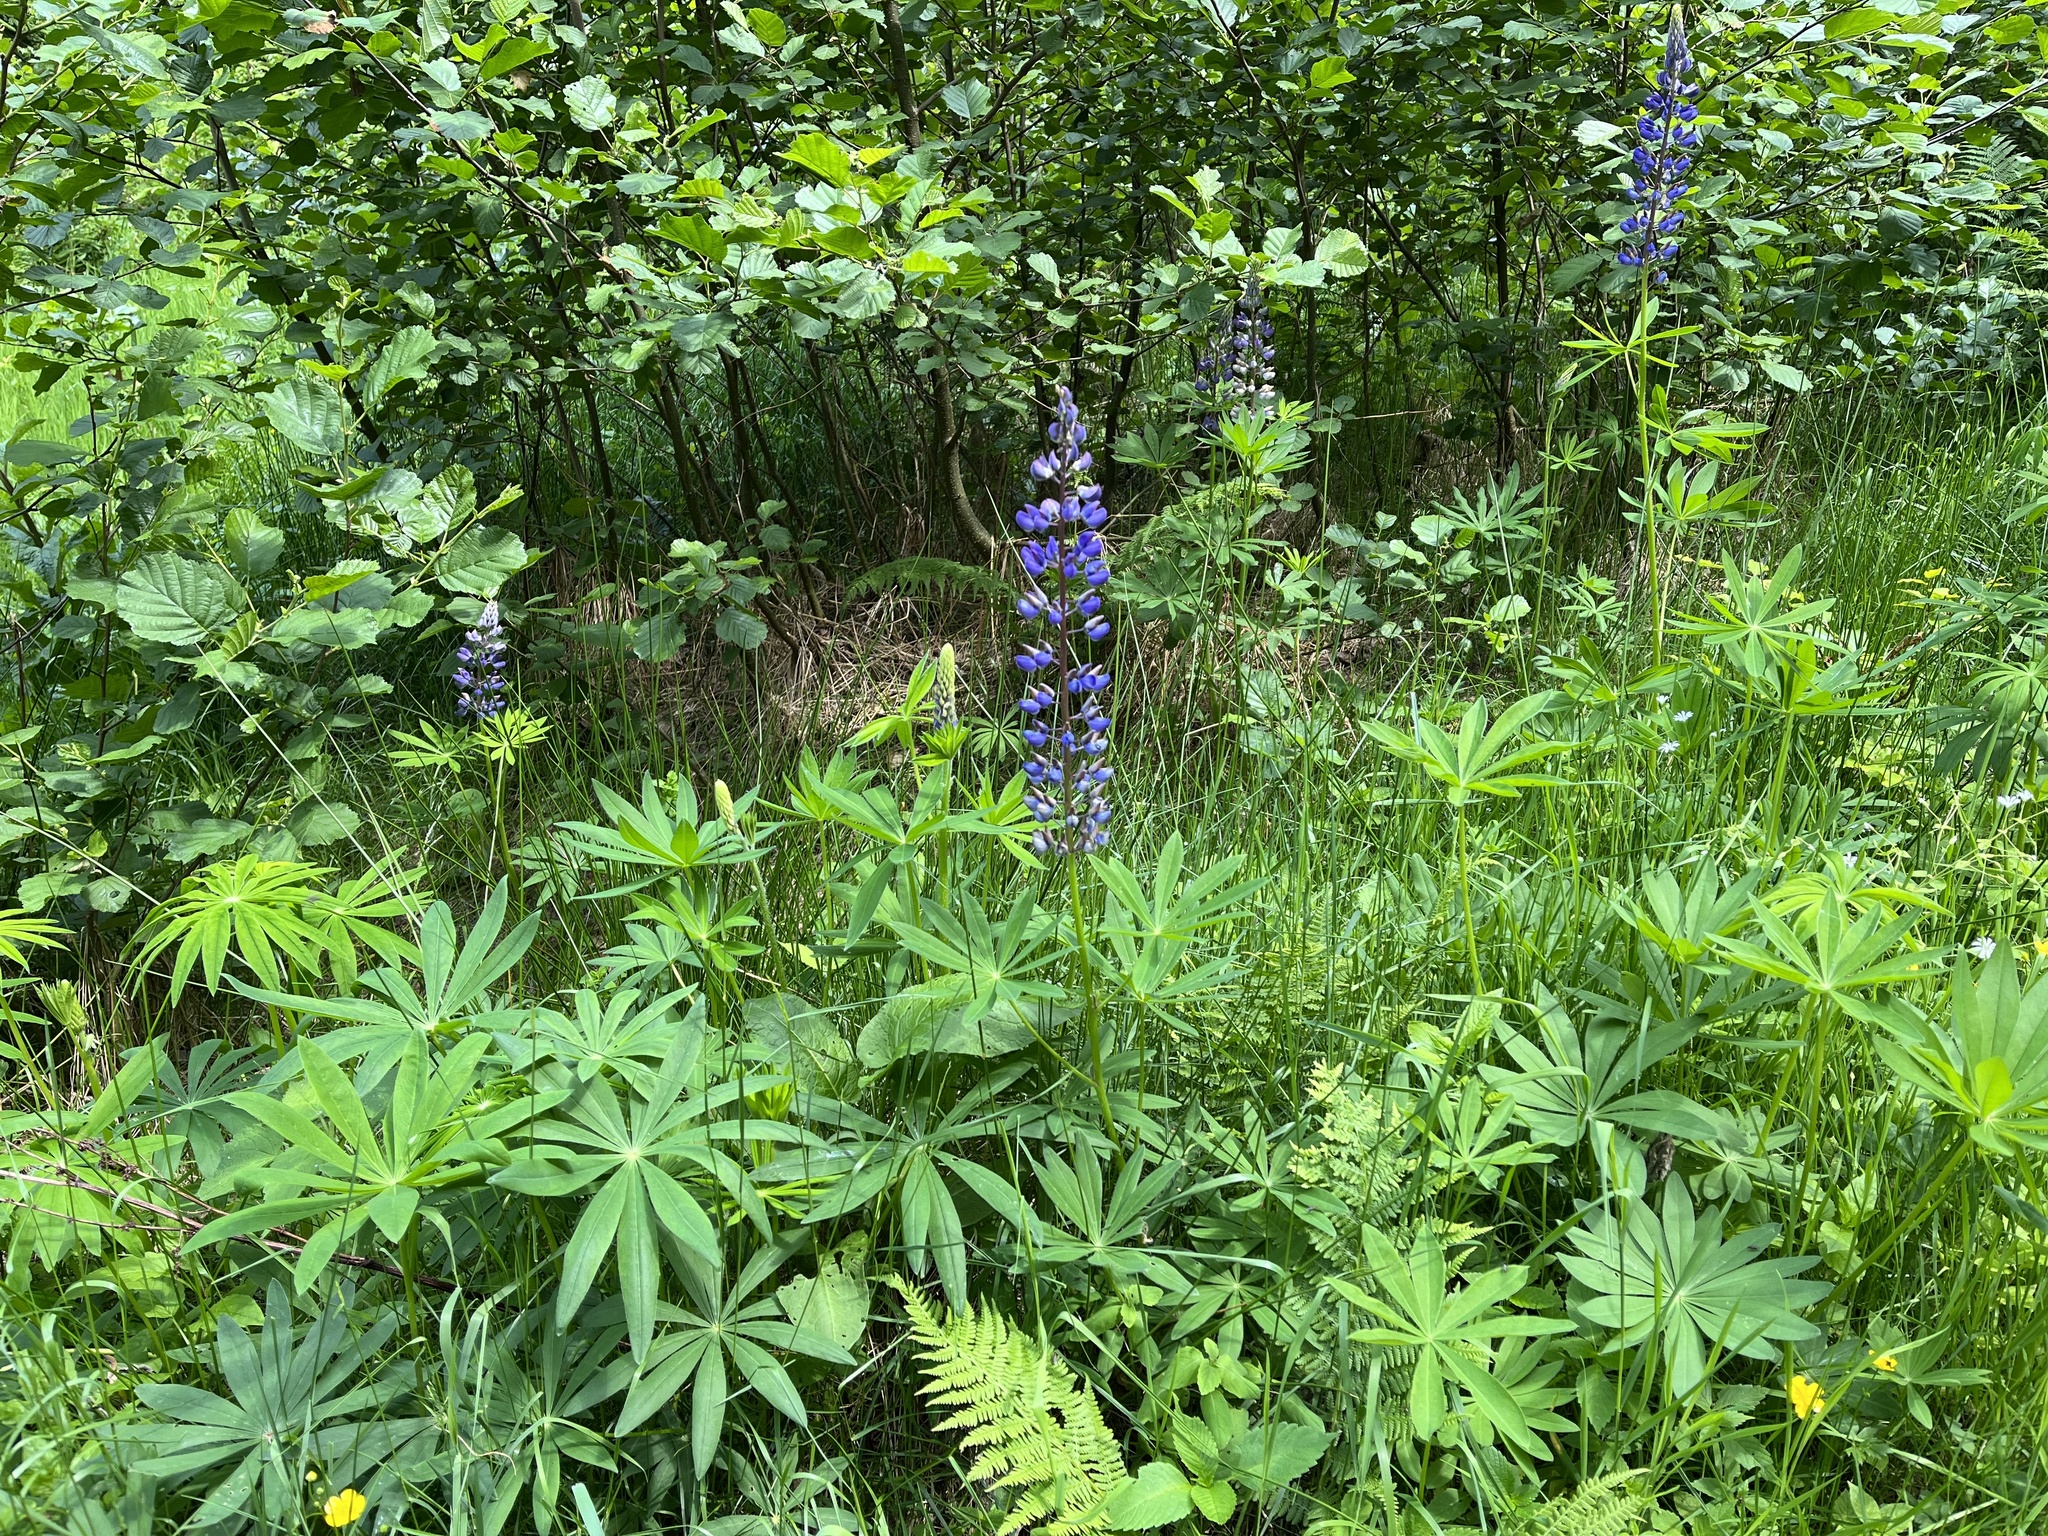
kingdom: Plantae
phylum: Tracheophyta
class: Magnoliopsida
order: Fabales
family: Fabaceae
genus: Lupinus
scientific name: Lupinus polyphyllus
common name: Garden lupin
